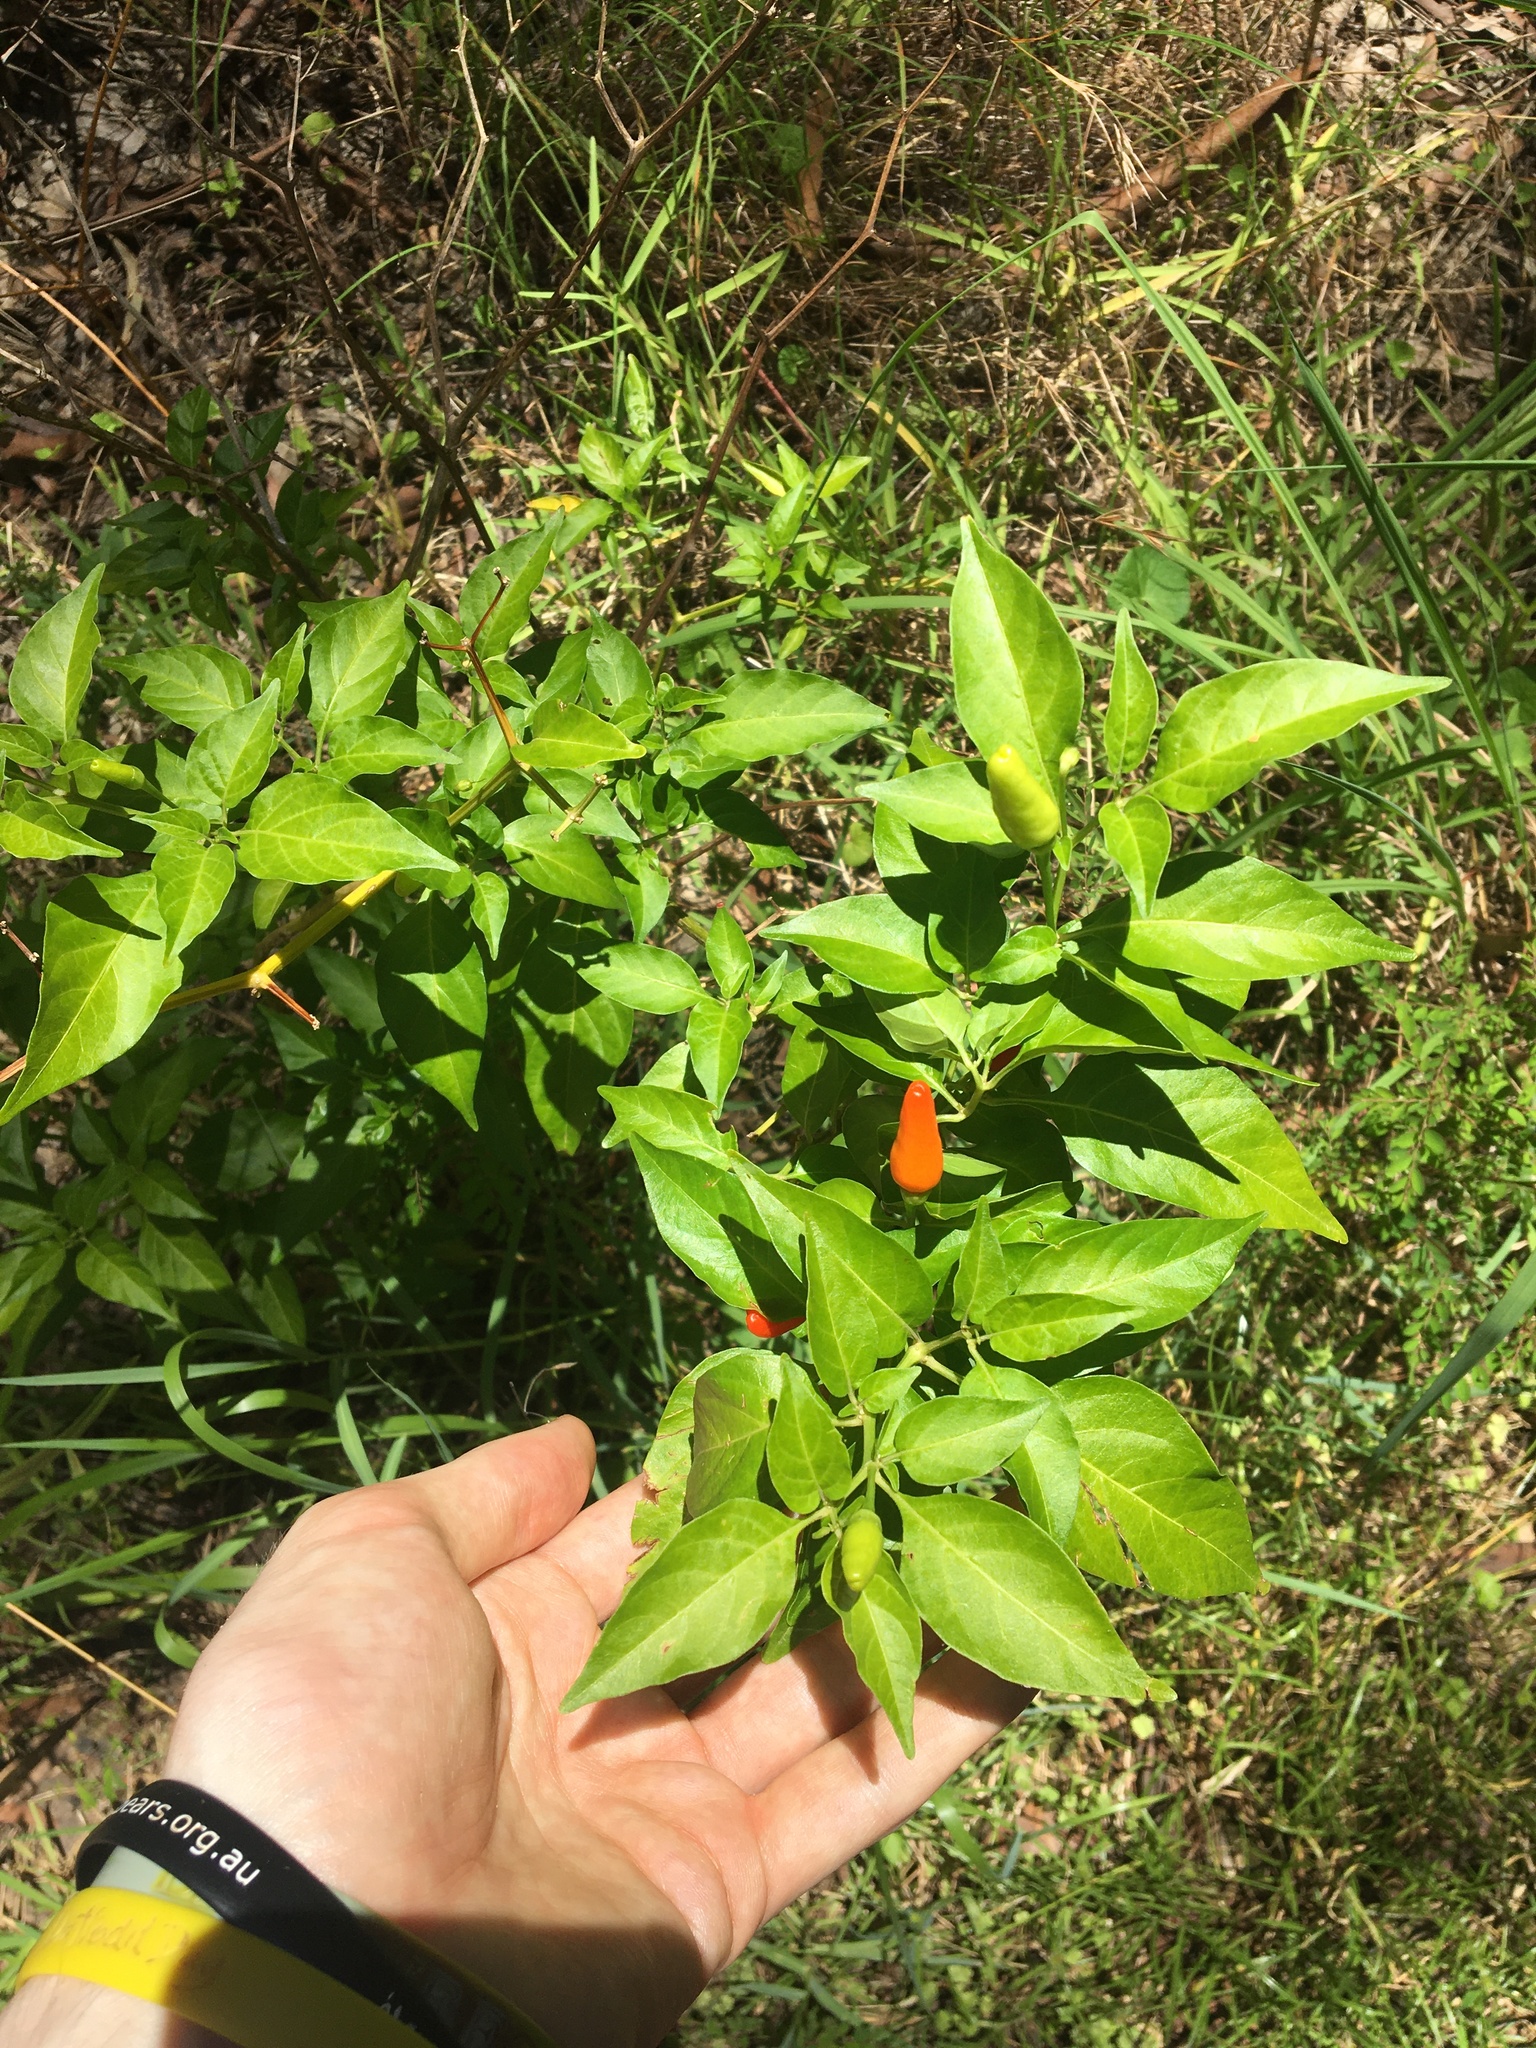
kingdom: Plantae
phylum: Tracheophyta
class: Magnoliopsida
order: Solanales
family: Solanaceae
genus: Capsicum
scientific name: Capsicum annuum
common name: Sweet pepper
